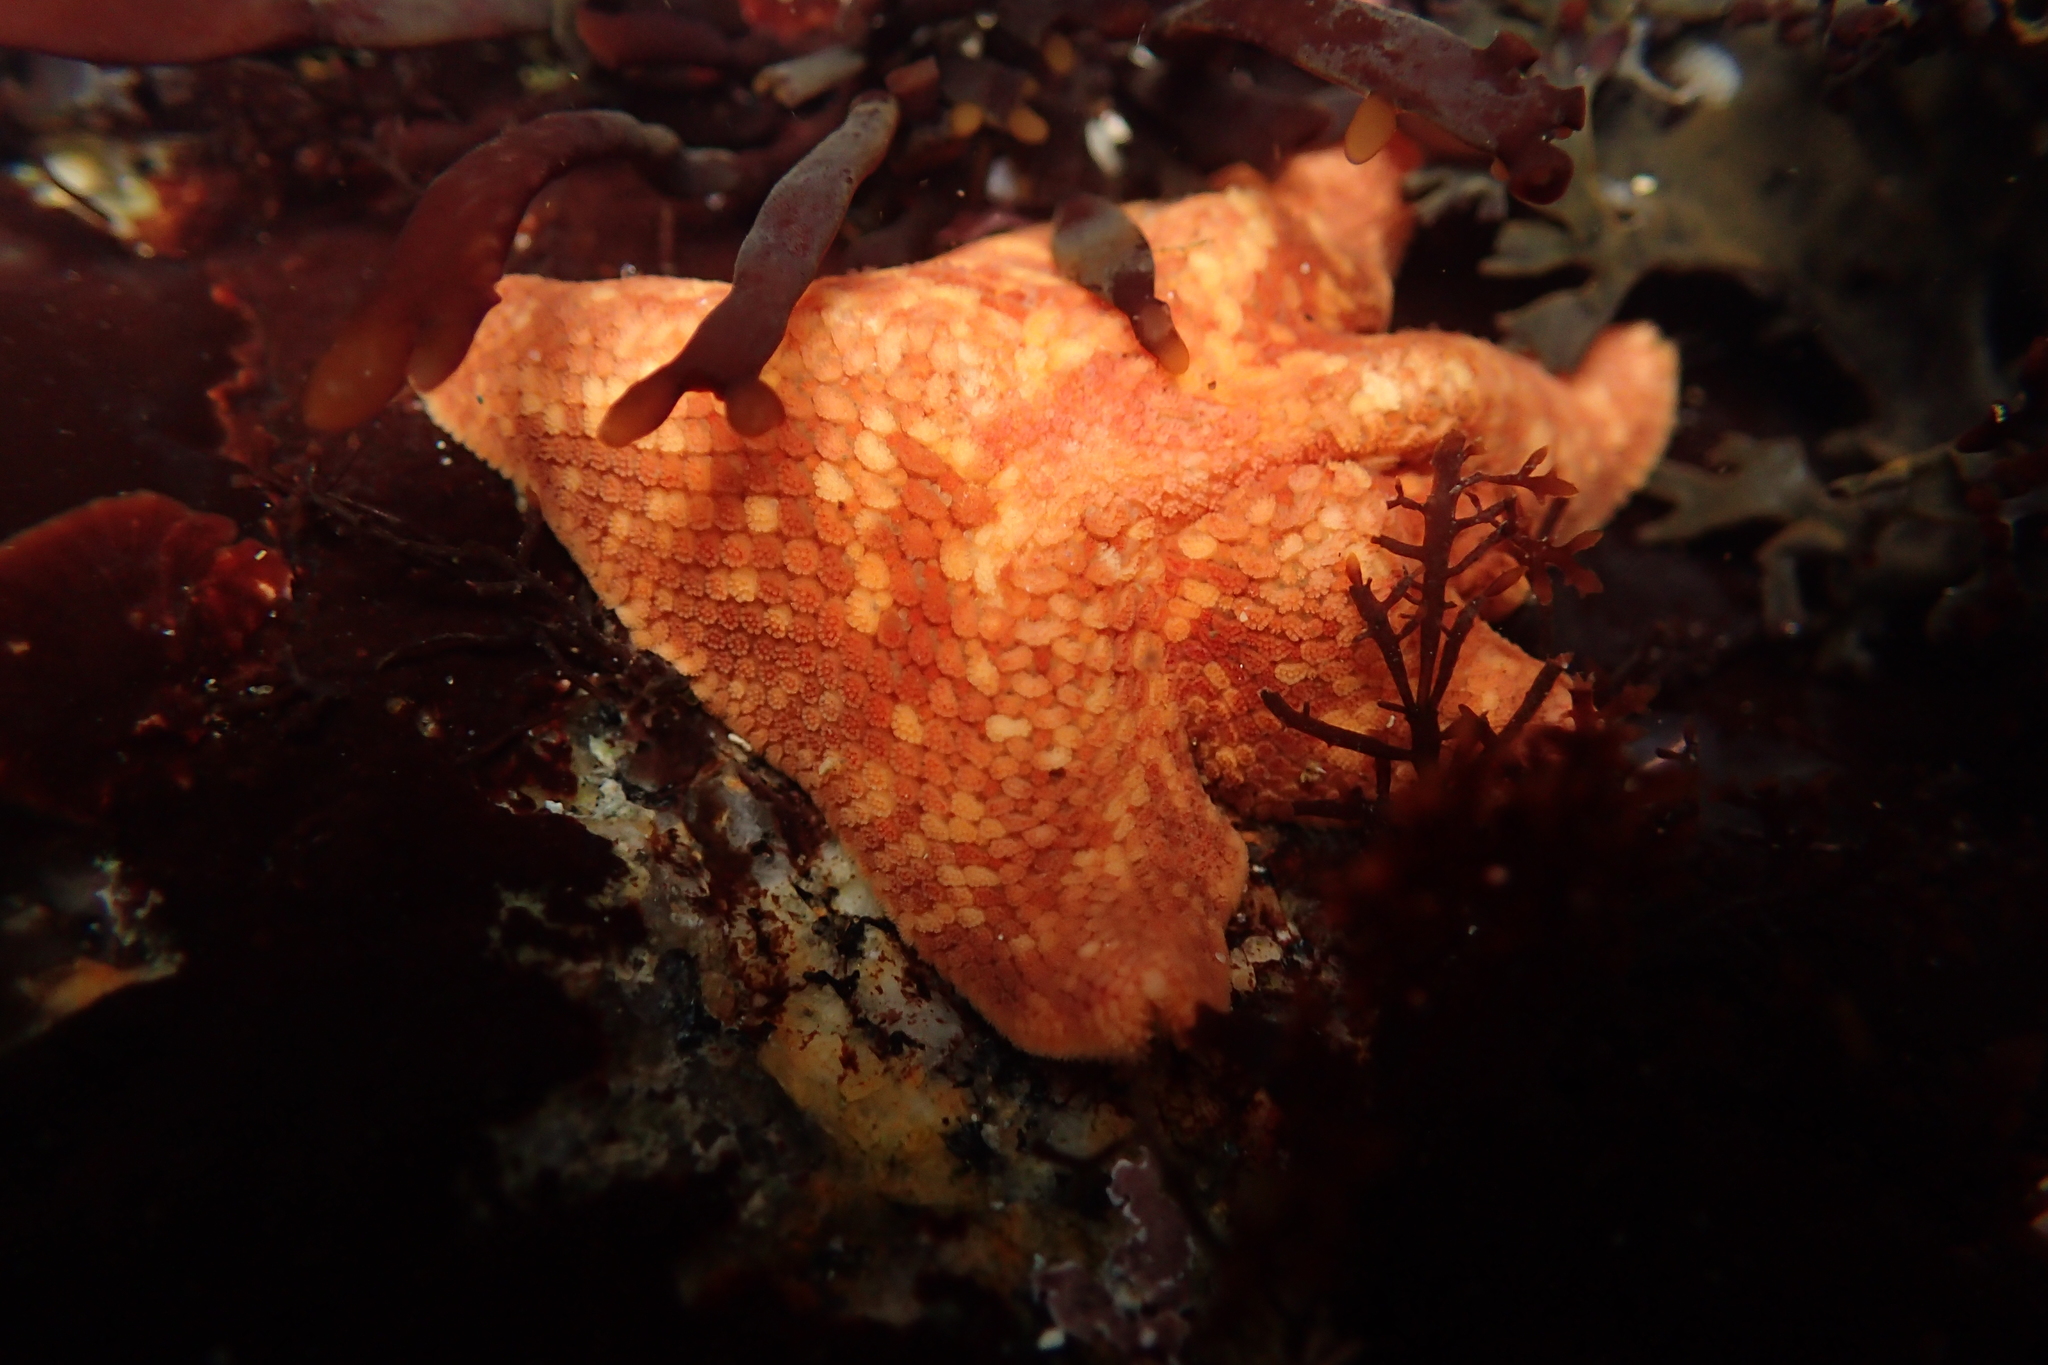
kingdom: Animalia
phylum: Echinodermata
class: Asteroidea
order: Valvatida
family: Asterinidae
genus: Patiria
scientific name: Patiria miniata
